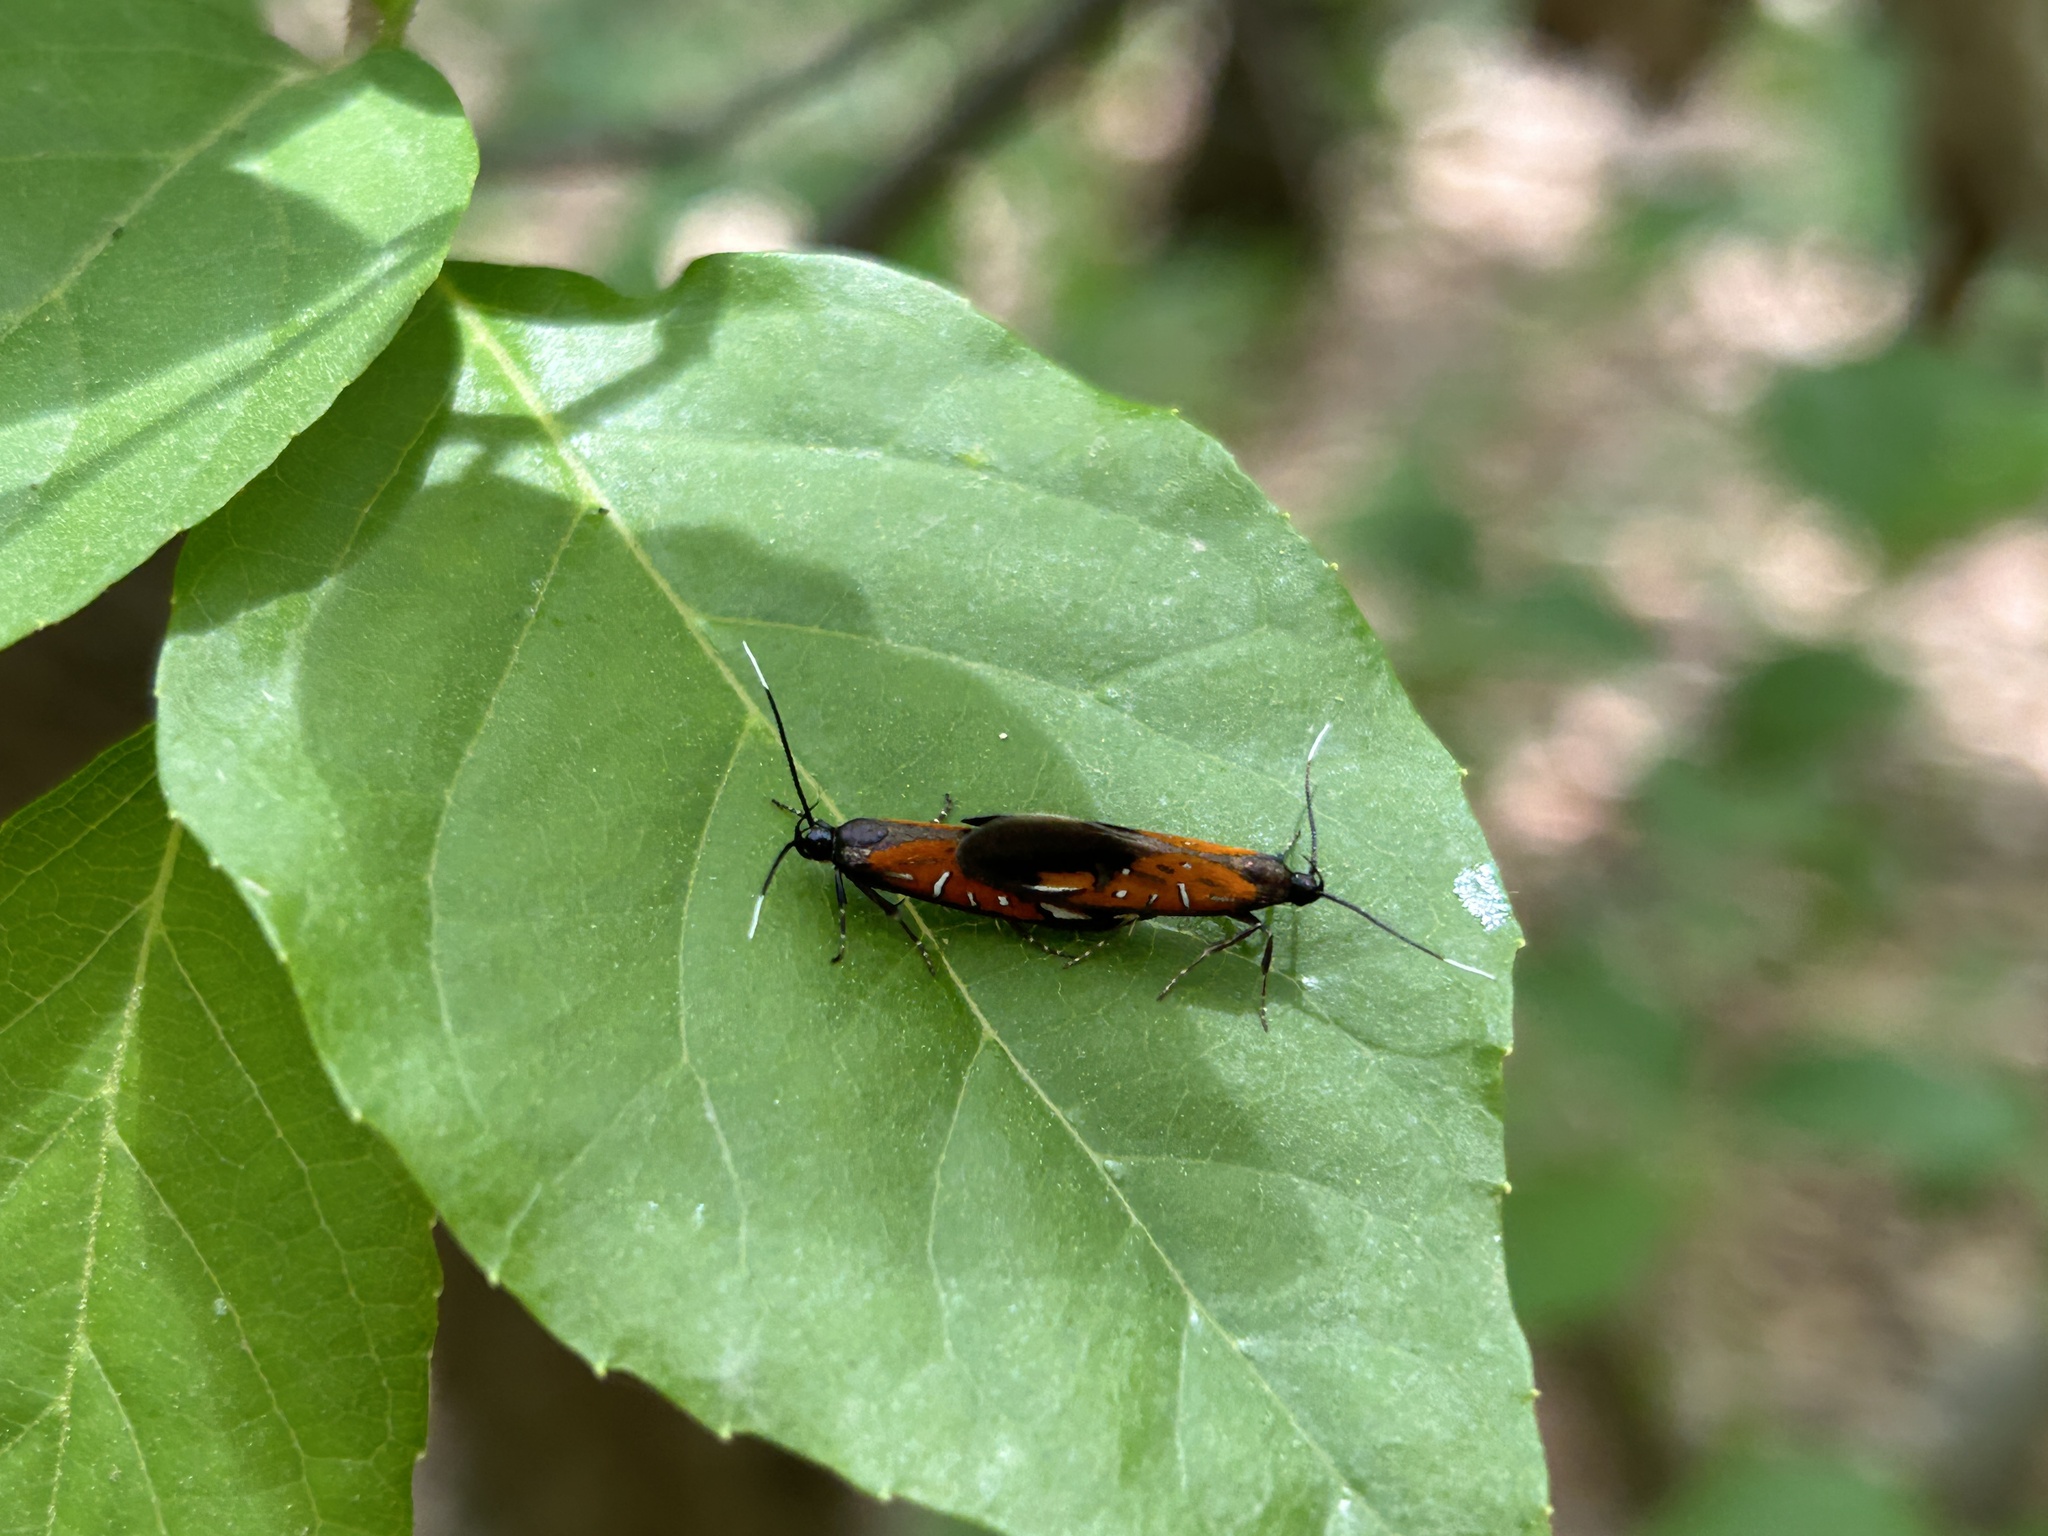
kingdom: Animalia
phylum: Arthropoda
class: Insecta
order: Lepidoptera
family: Oecophoridae
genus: Schiffermuelleria
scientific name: Schiffermuelleria zelleri
